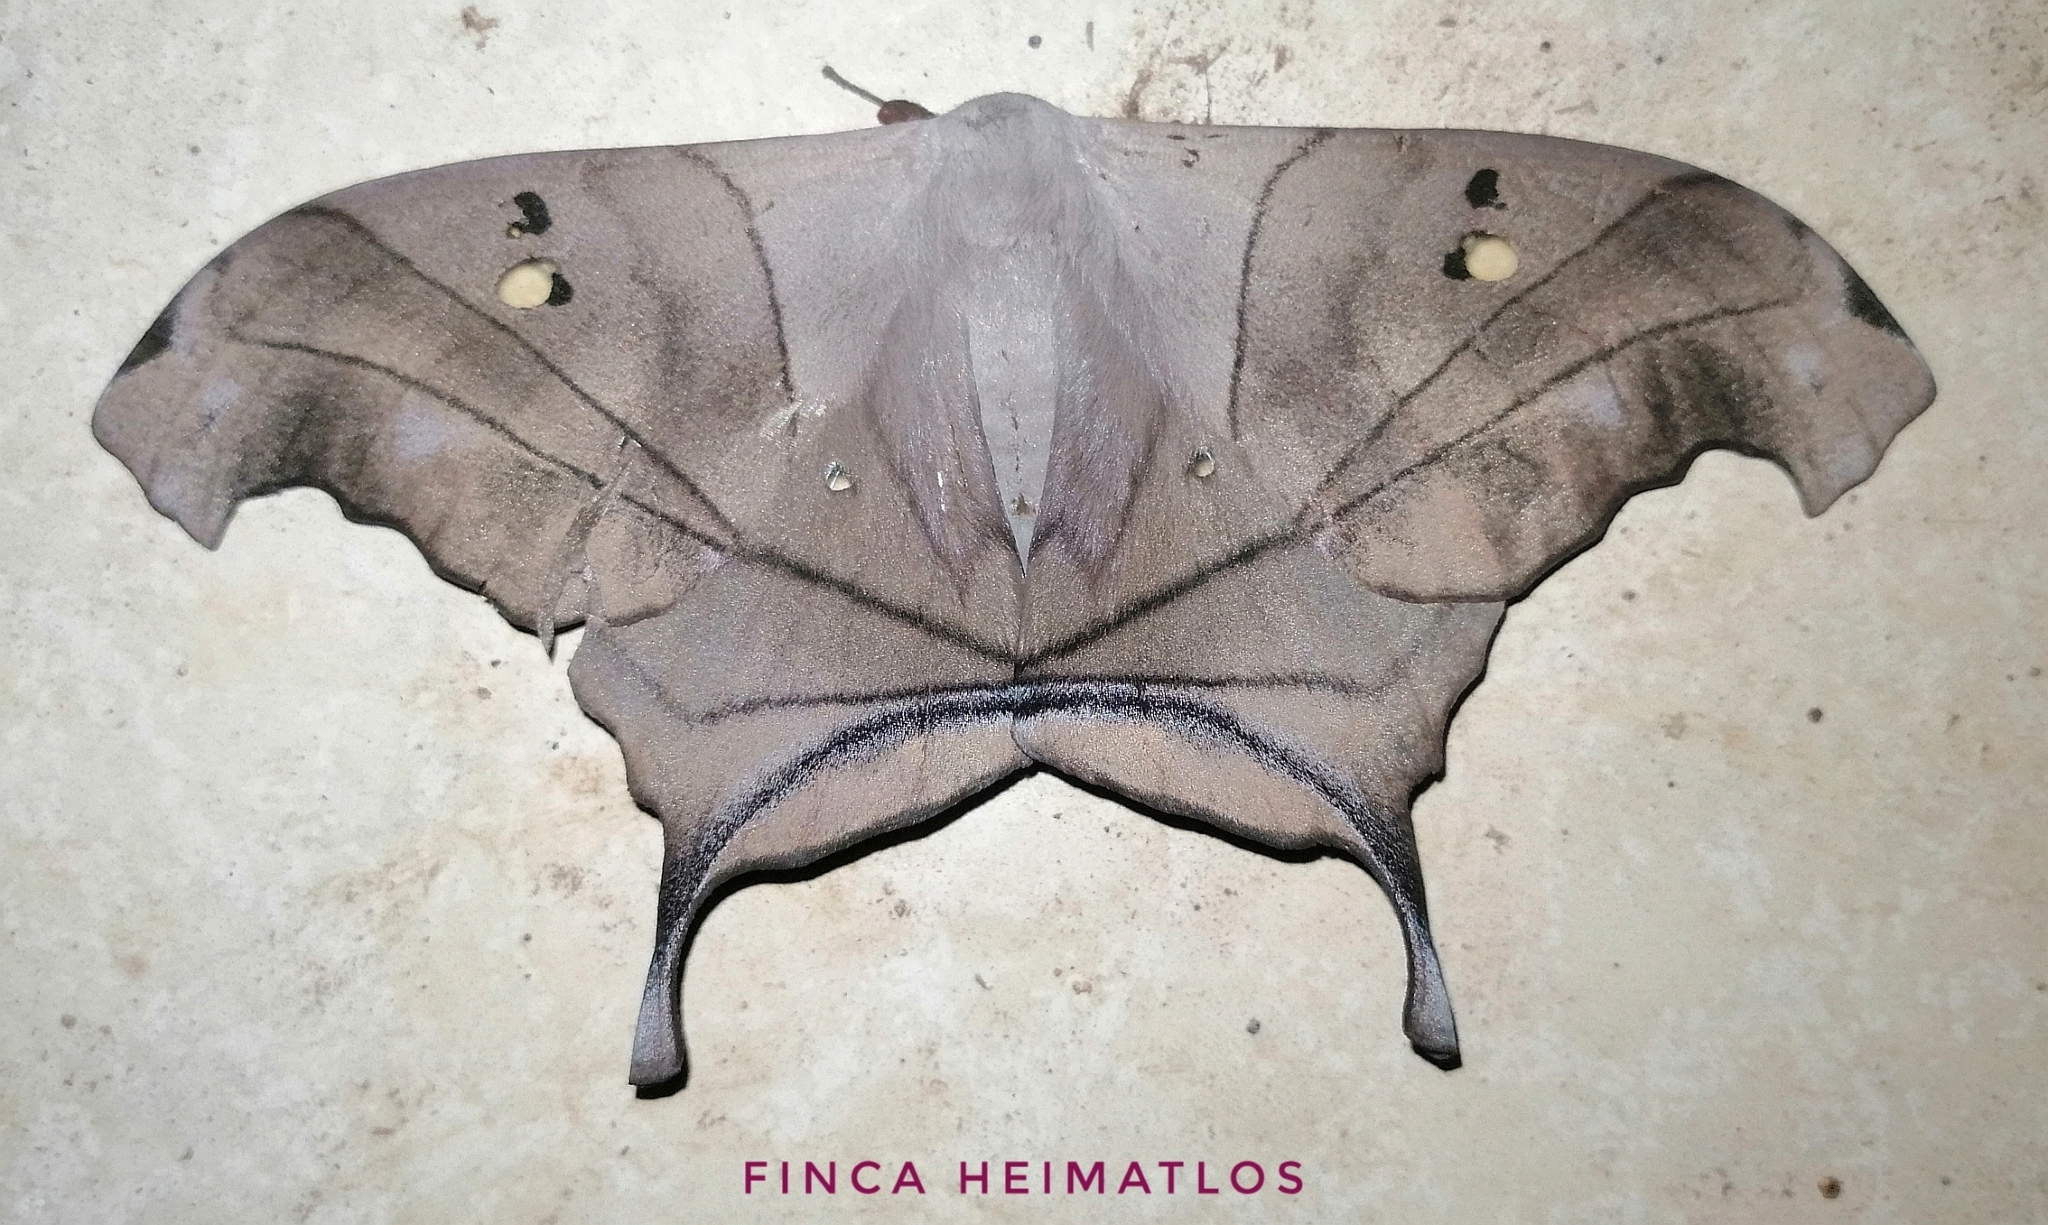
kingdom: Animalia
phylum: Arthropoda
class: Insecta
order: Lepidoptera
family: Saturniidae
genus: Dysdaemonia
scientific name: Dysdaemonia australoboreas
